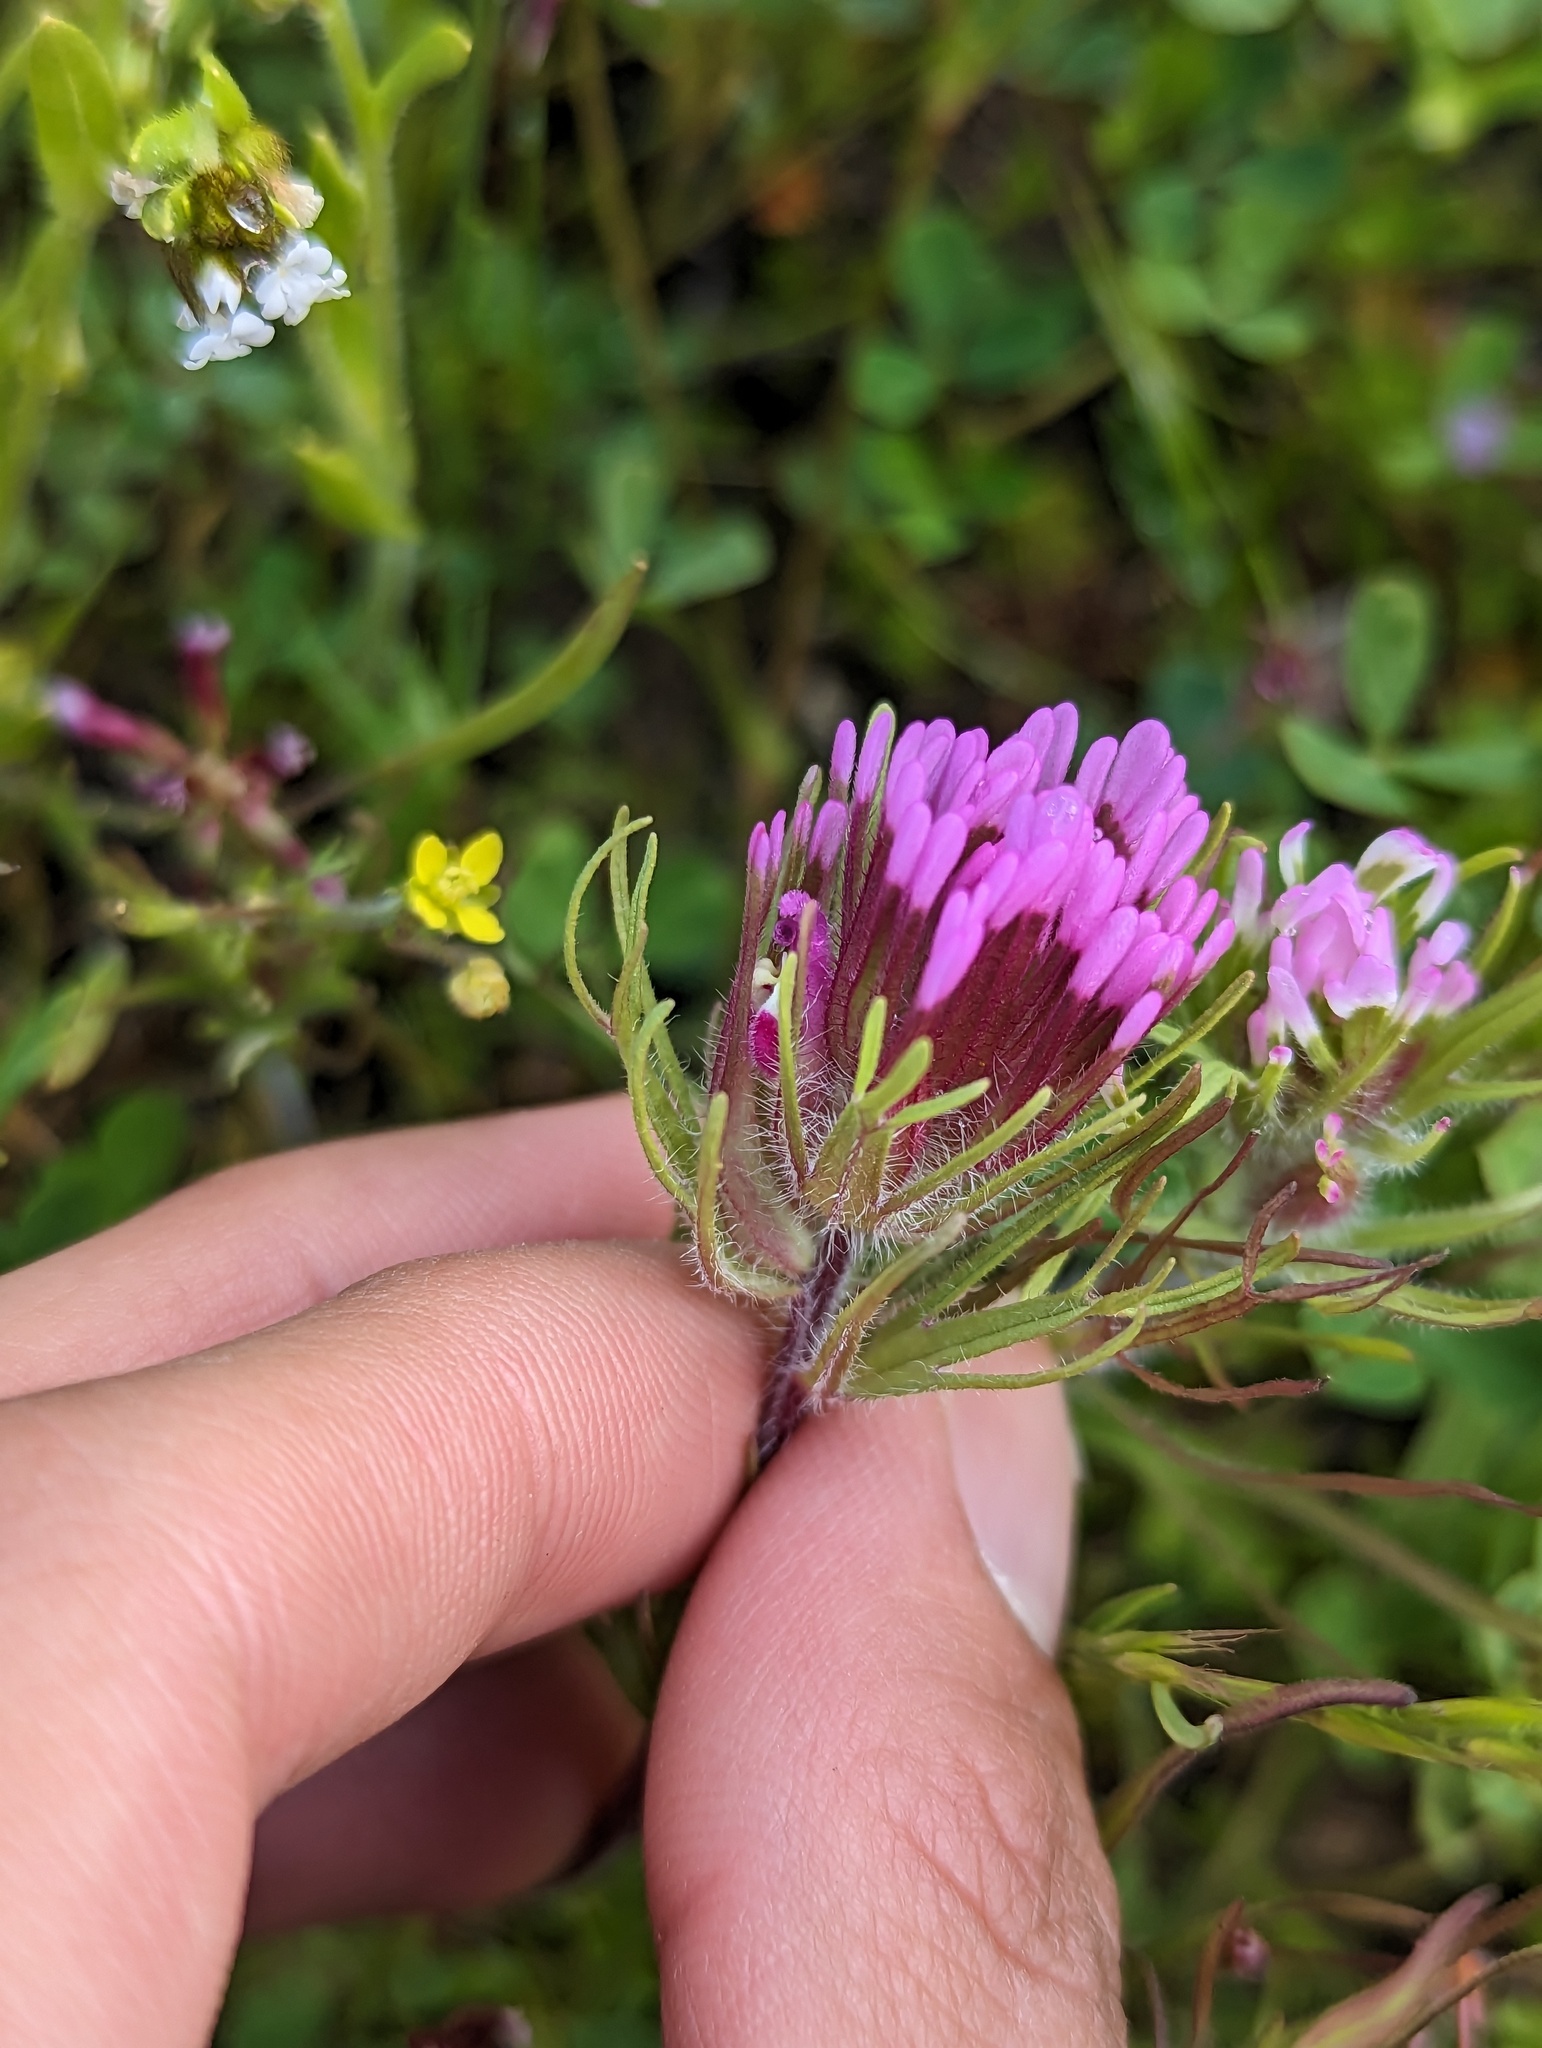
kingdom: Plantae
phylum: Tracheophyta
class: Magnoliopsida
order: Lamiales
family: Orobanchaceae
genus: Castilleja
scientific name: Castilleja exserta
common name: Purple owl-clover
